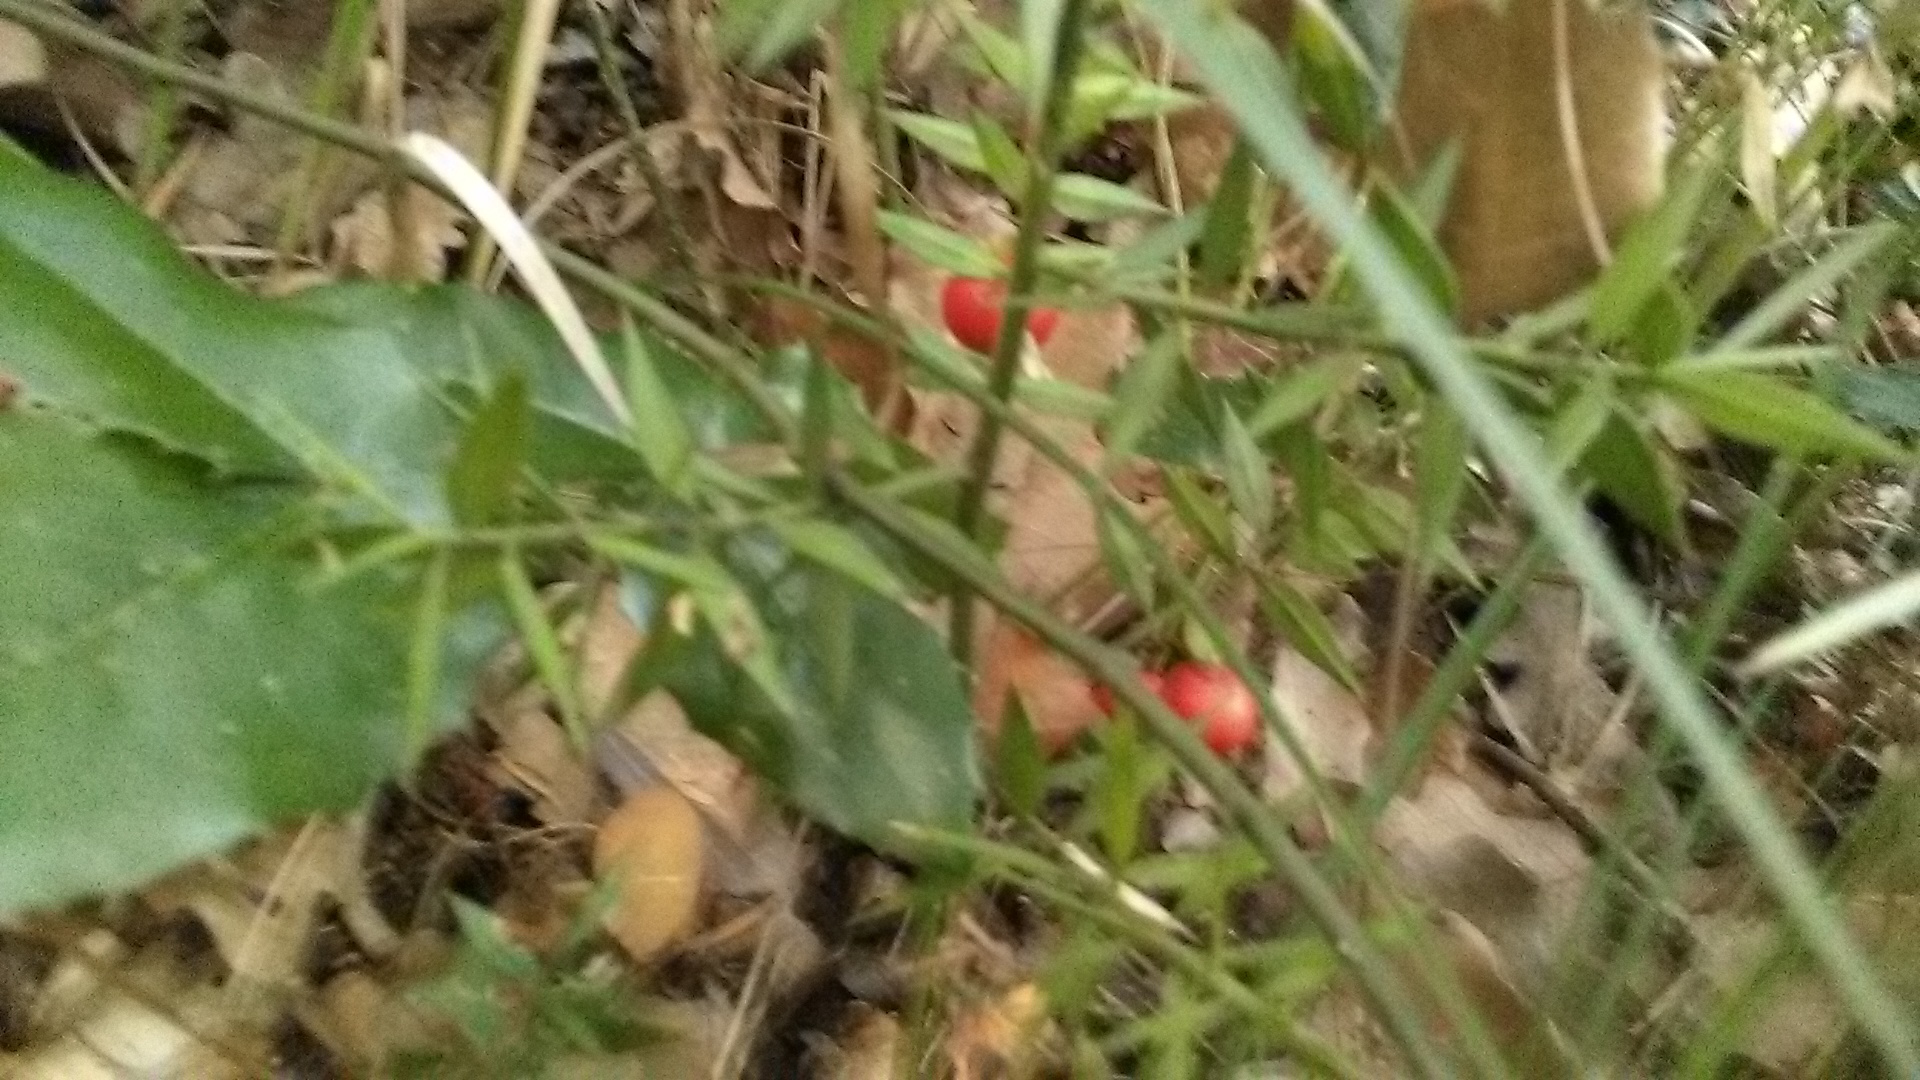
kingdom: Plantae
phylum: Tracheophyta
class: Liliopsida
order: Asparagales
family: Asparagaceae
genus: Ruscus
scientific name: Ruscus aculeatus
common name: Butcher's-broom
